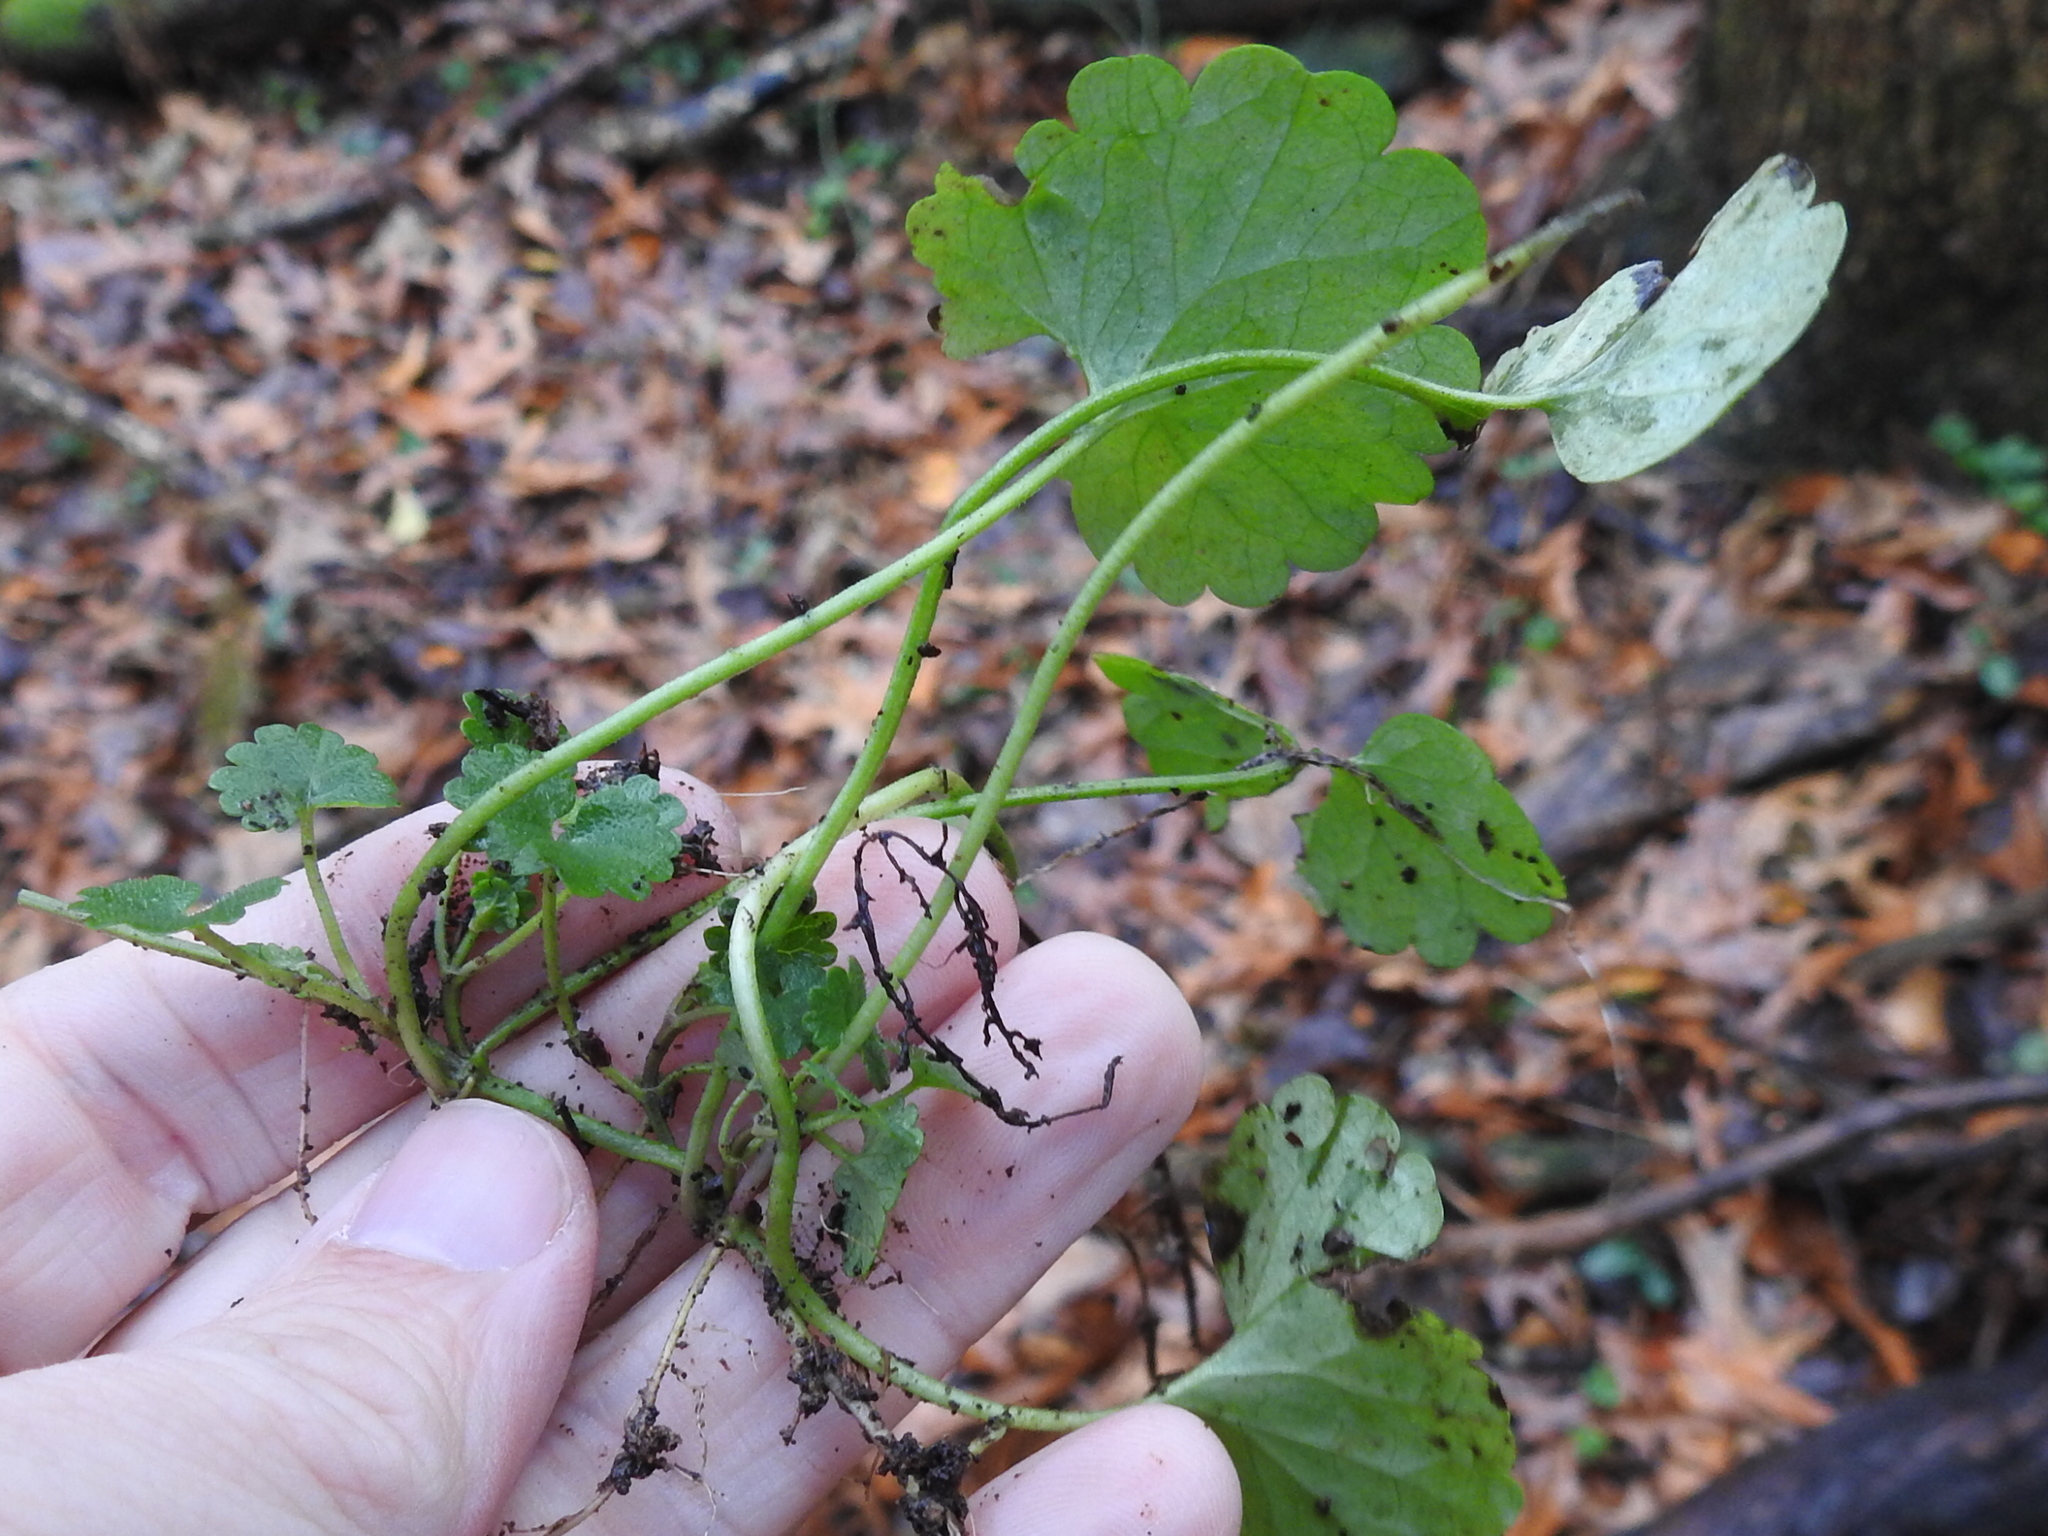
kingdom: Plantae
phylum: Tracheophyta
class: Magnoliopsida
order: Lamiales
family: Lamiaceae
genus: Glechoma
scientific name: Glechoma hederacea
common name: Ground ivy
